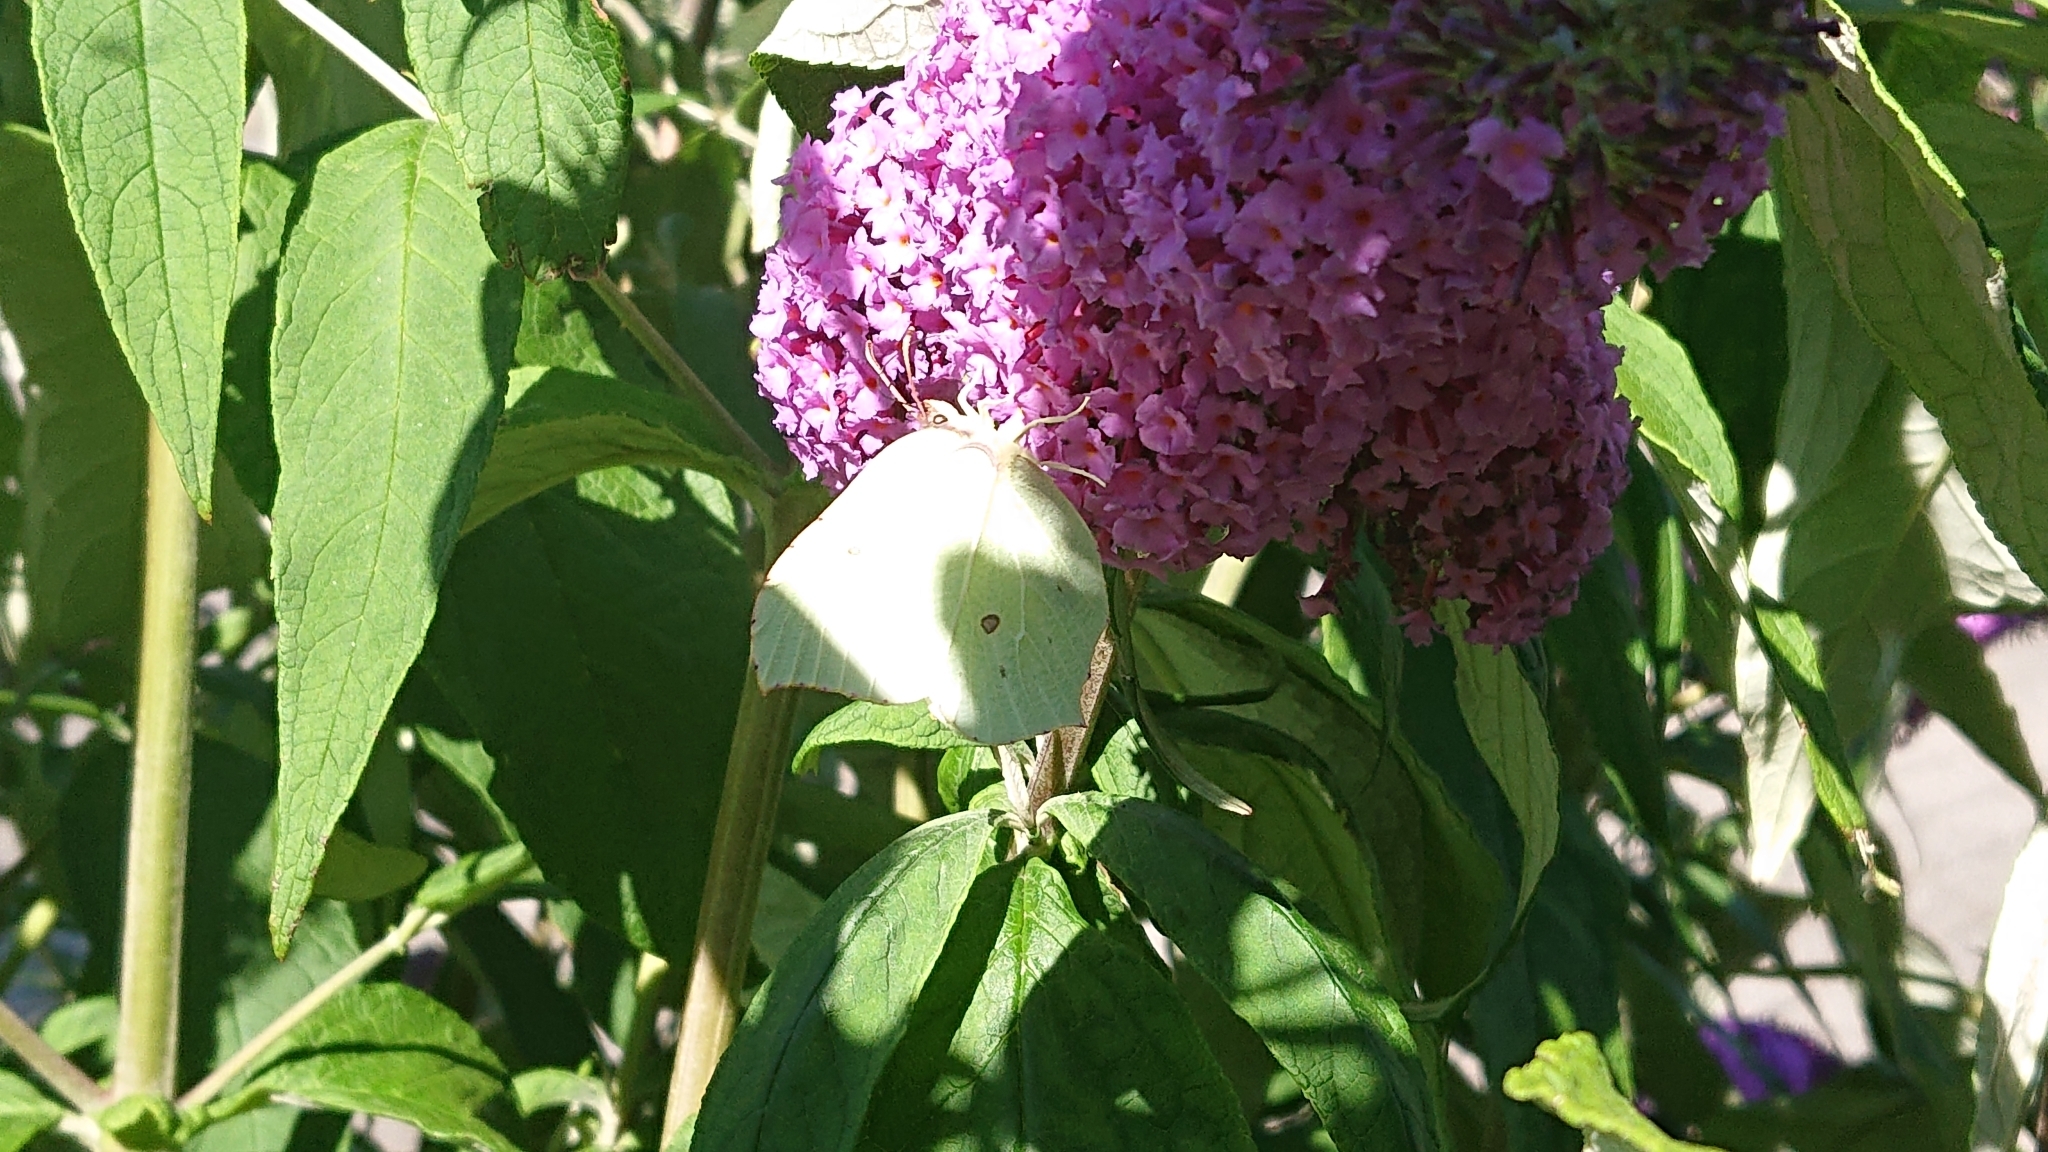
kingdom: Animalia
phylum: Arthropoda
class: Insecta
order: Lepidoptera
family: Pieridae
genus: Gonepteryx
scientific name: Gonepteryx rhamni
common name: Brimstone
